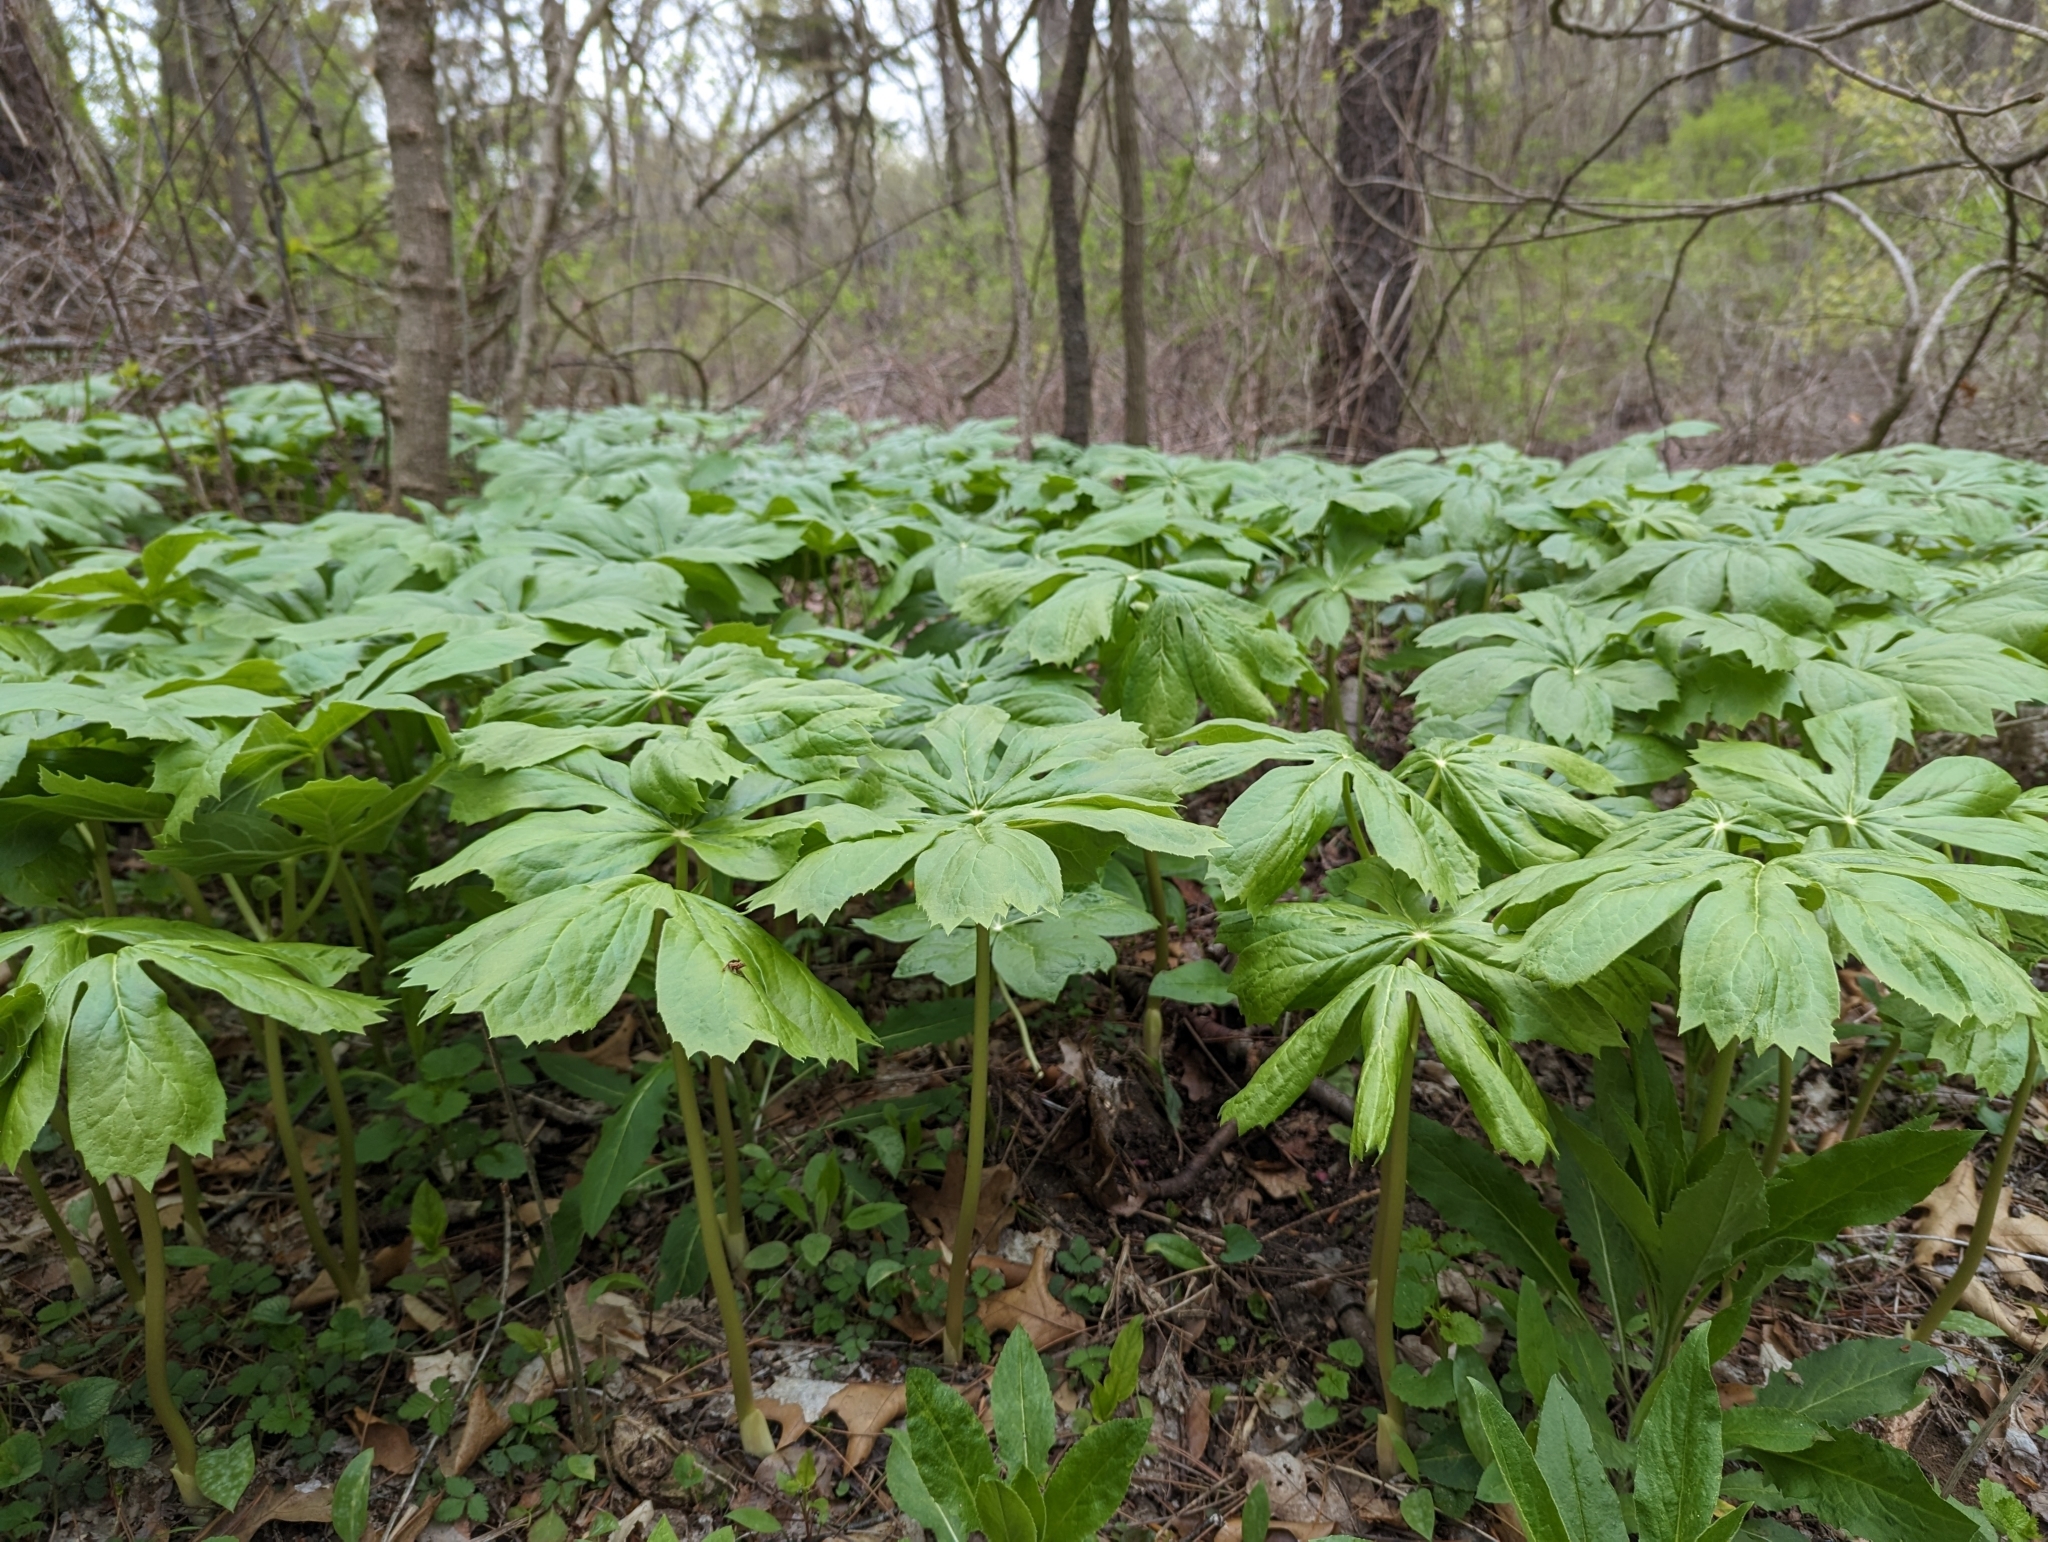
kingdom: Plantae
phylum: Tracheophyta
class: Magnoliopsida
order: Ranunculales
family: Berberidaceae
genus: Podophyllum
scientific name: Podophyllum peltatum
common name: Wild mandrake
